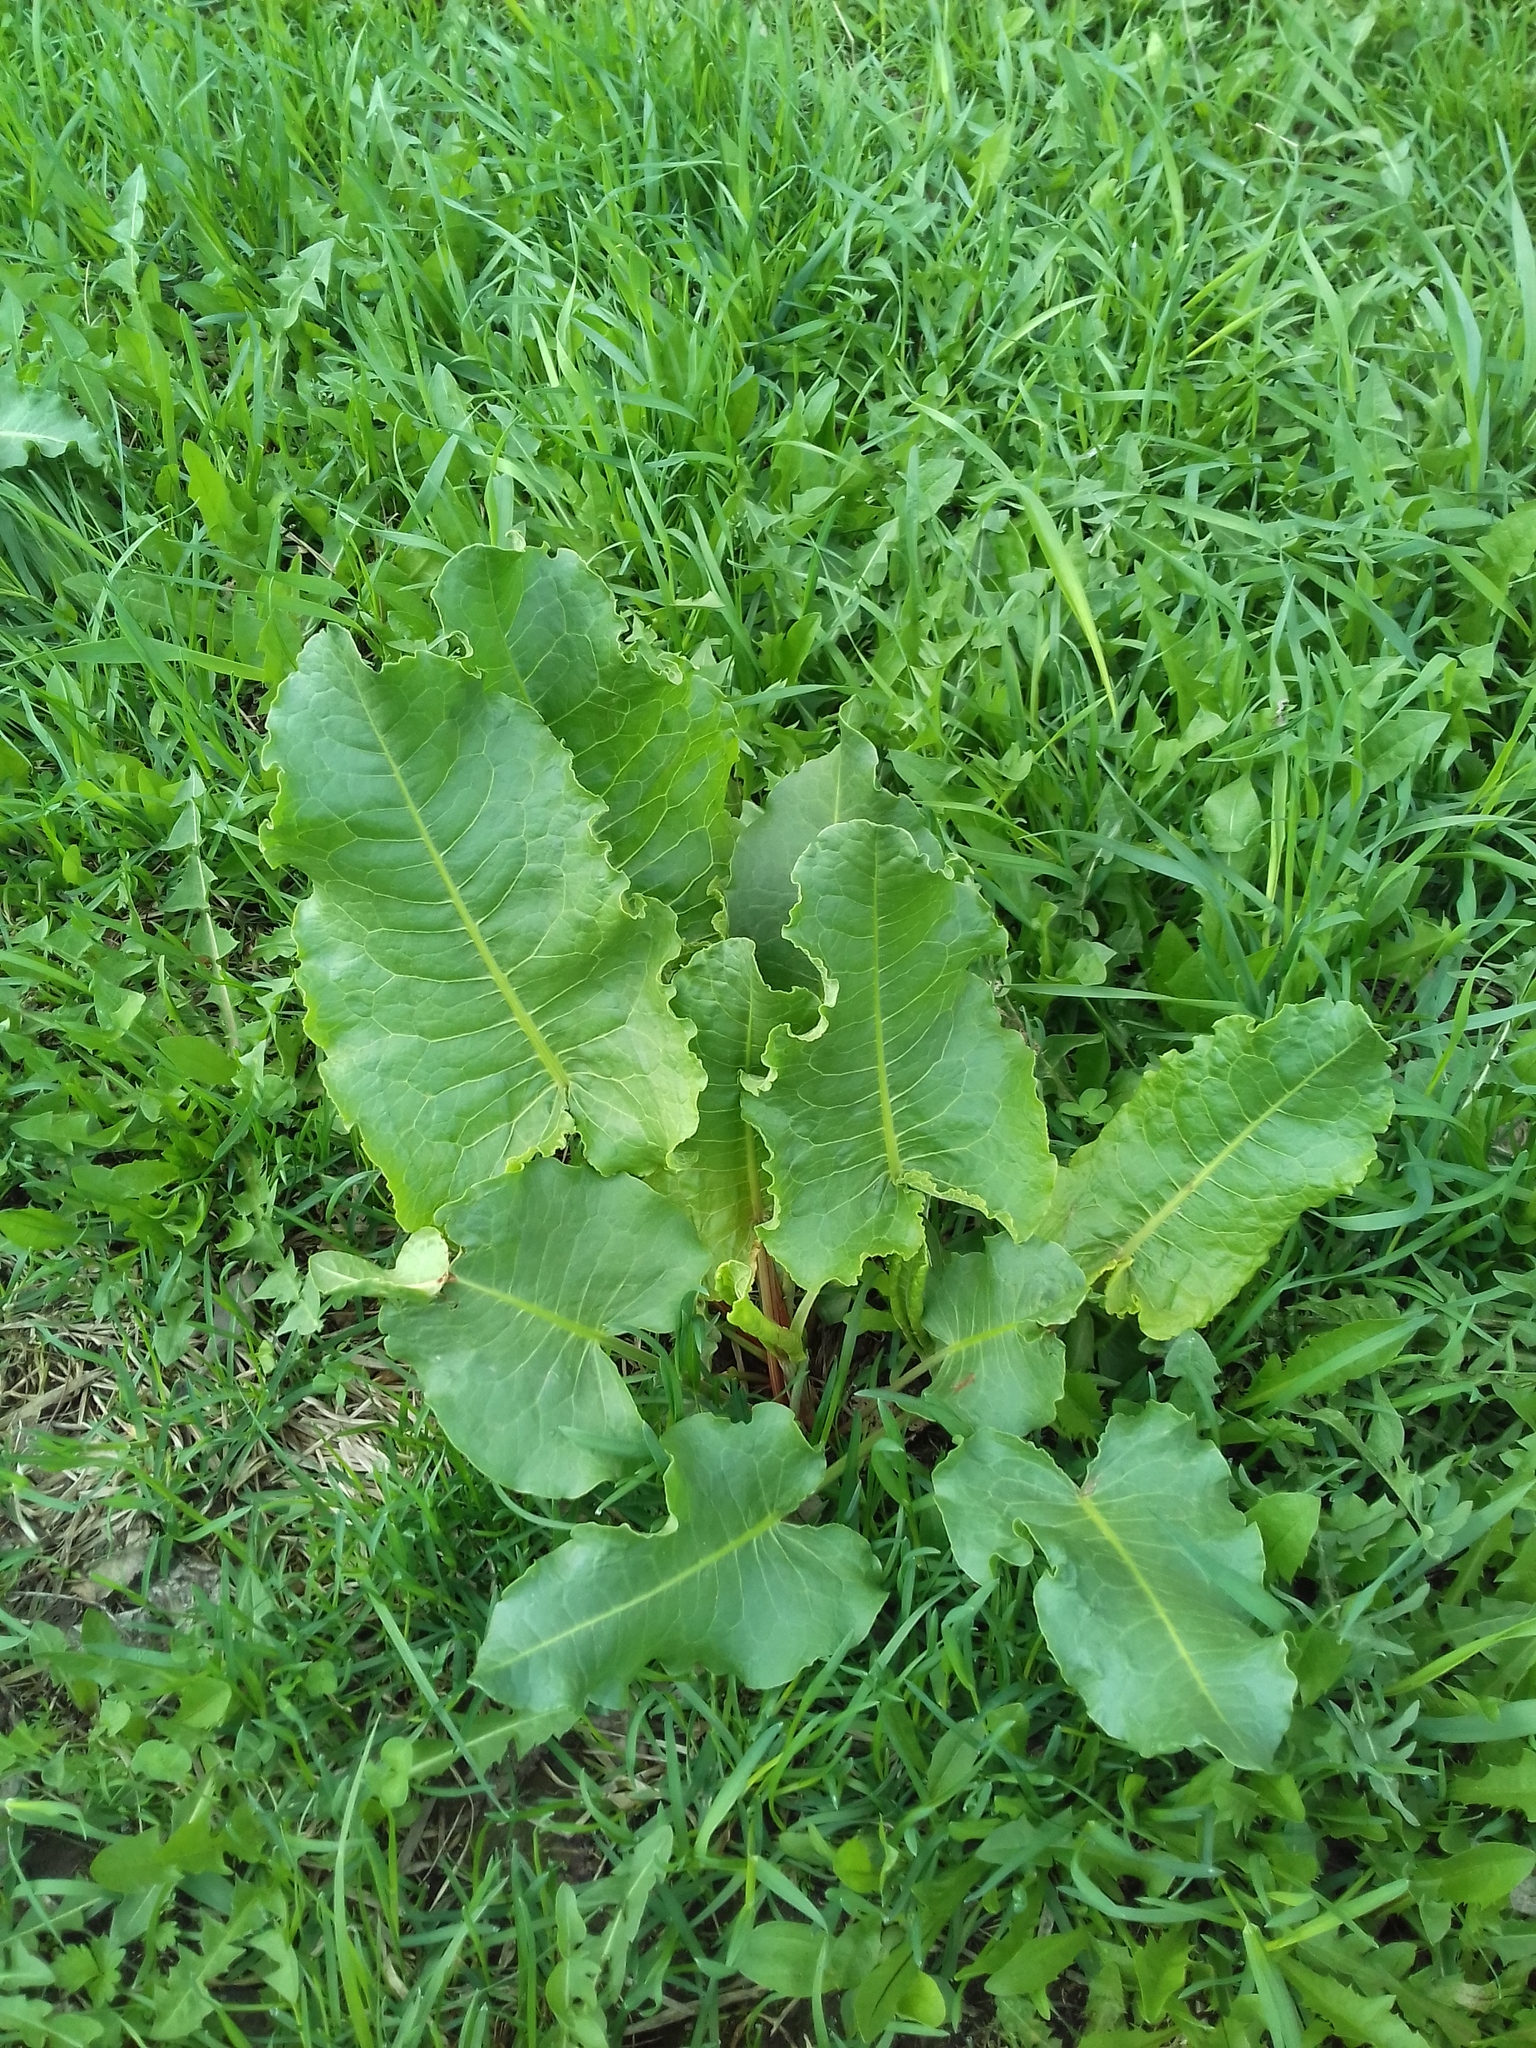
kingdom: Plantae
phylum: Tracheophyta
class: Magnoliopsida
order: Caryophyllales
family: Polygonaceae
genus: Rumex
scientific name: Rumex confertus
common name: Russian dock
